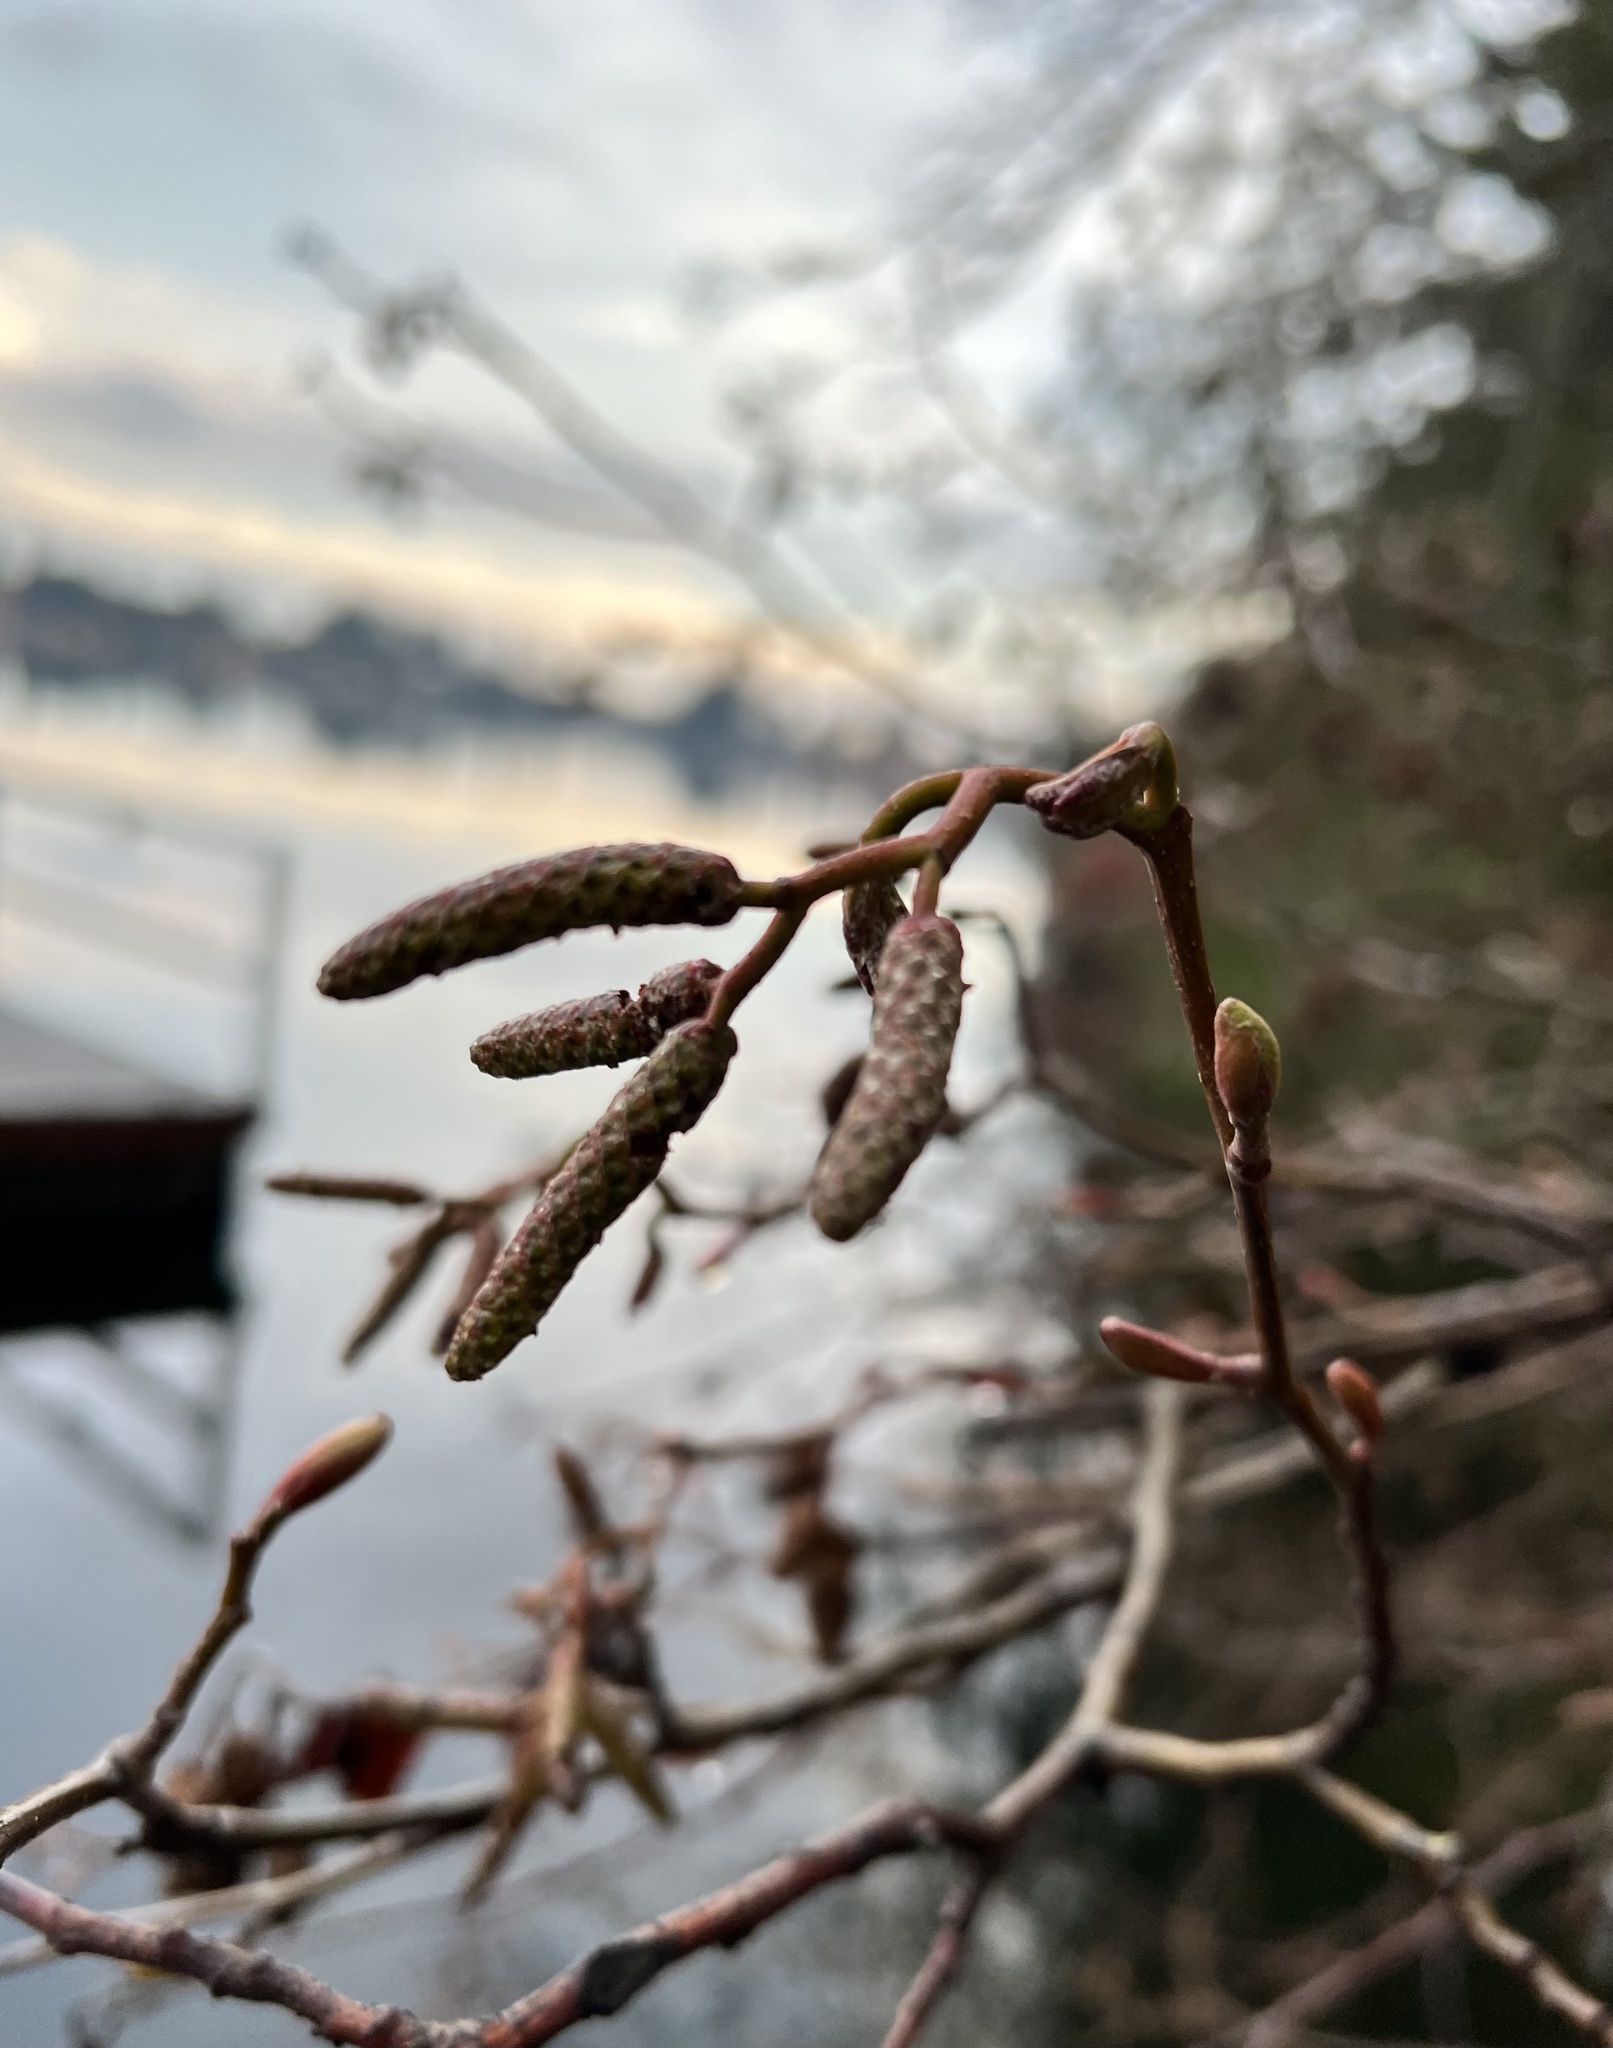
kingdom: Plantae
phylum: Tracheophyta
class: Magnoliopsida
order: Fagales
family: Betulaceae
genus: Alnus
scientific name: Alnus rubra
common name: Red alder
